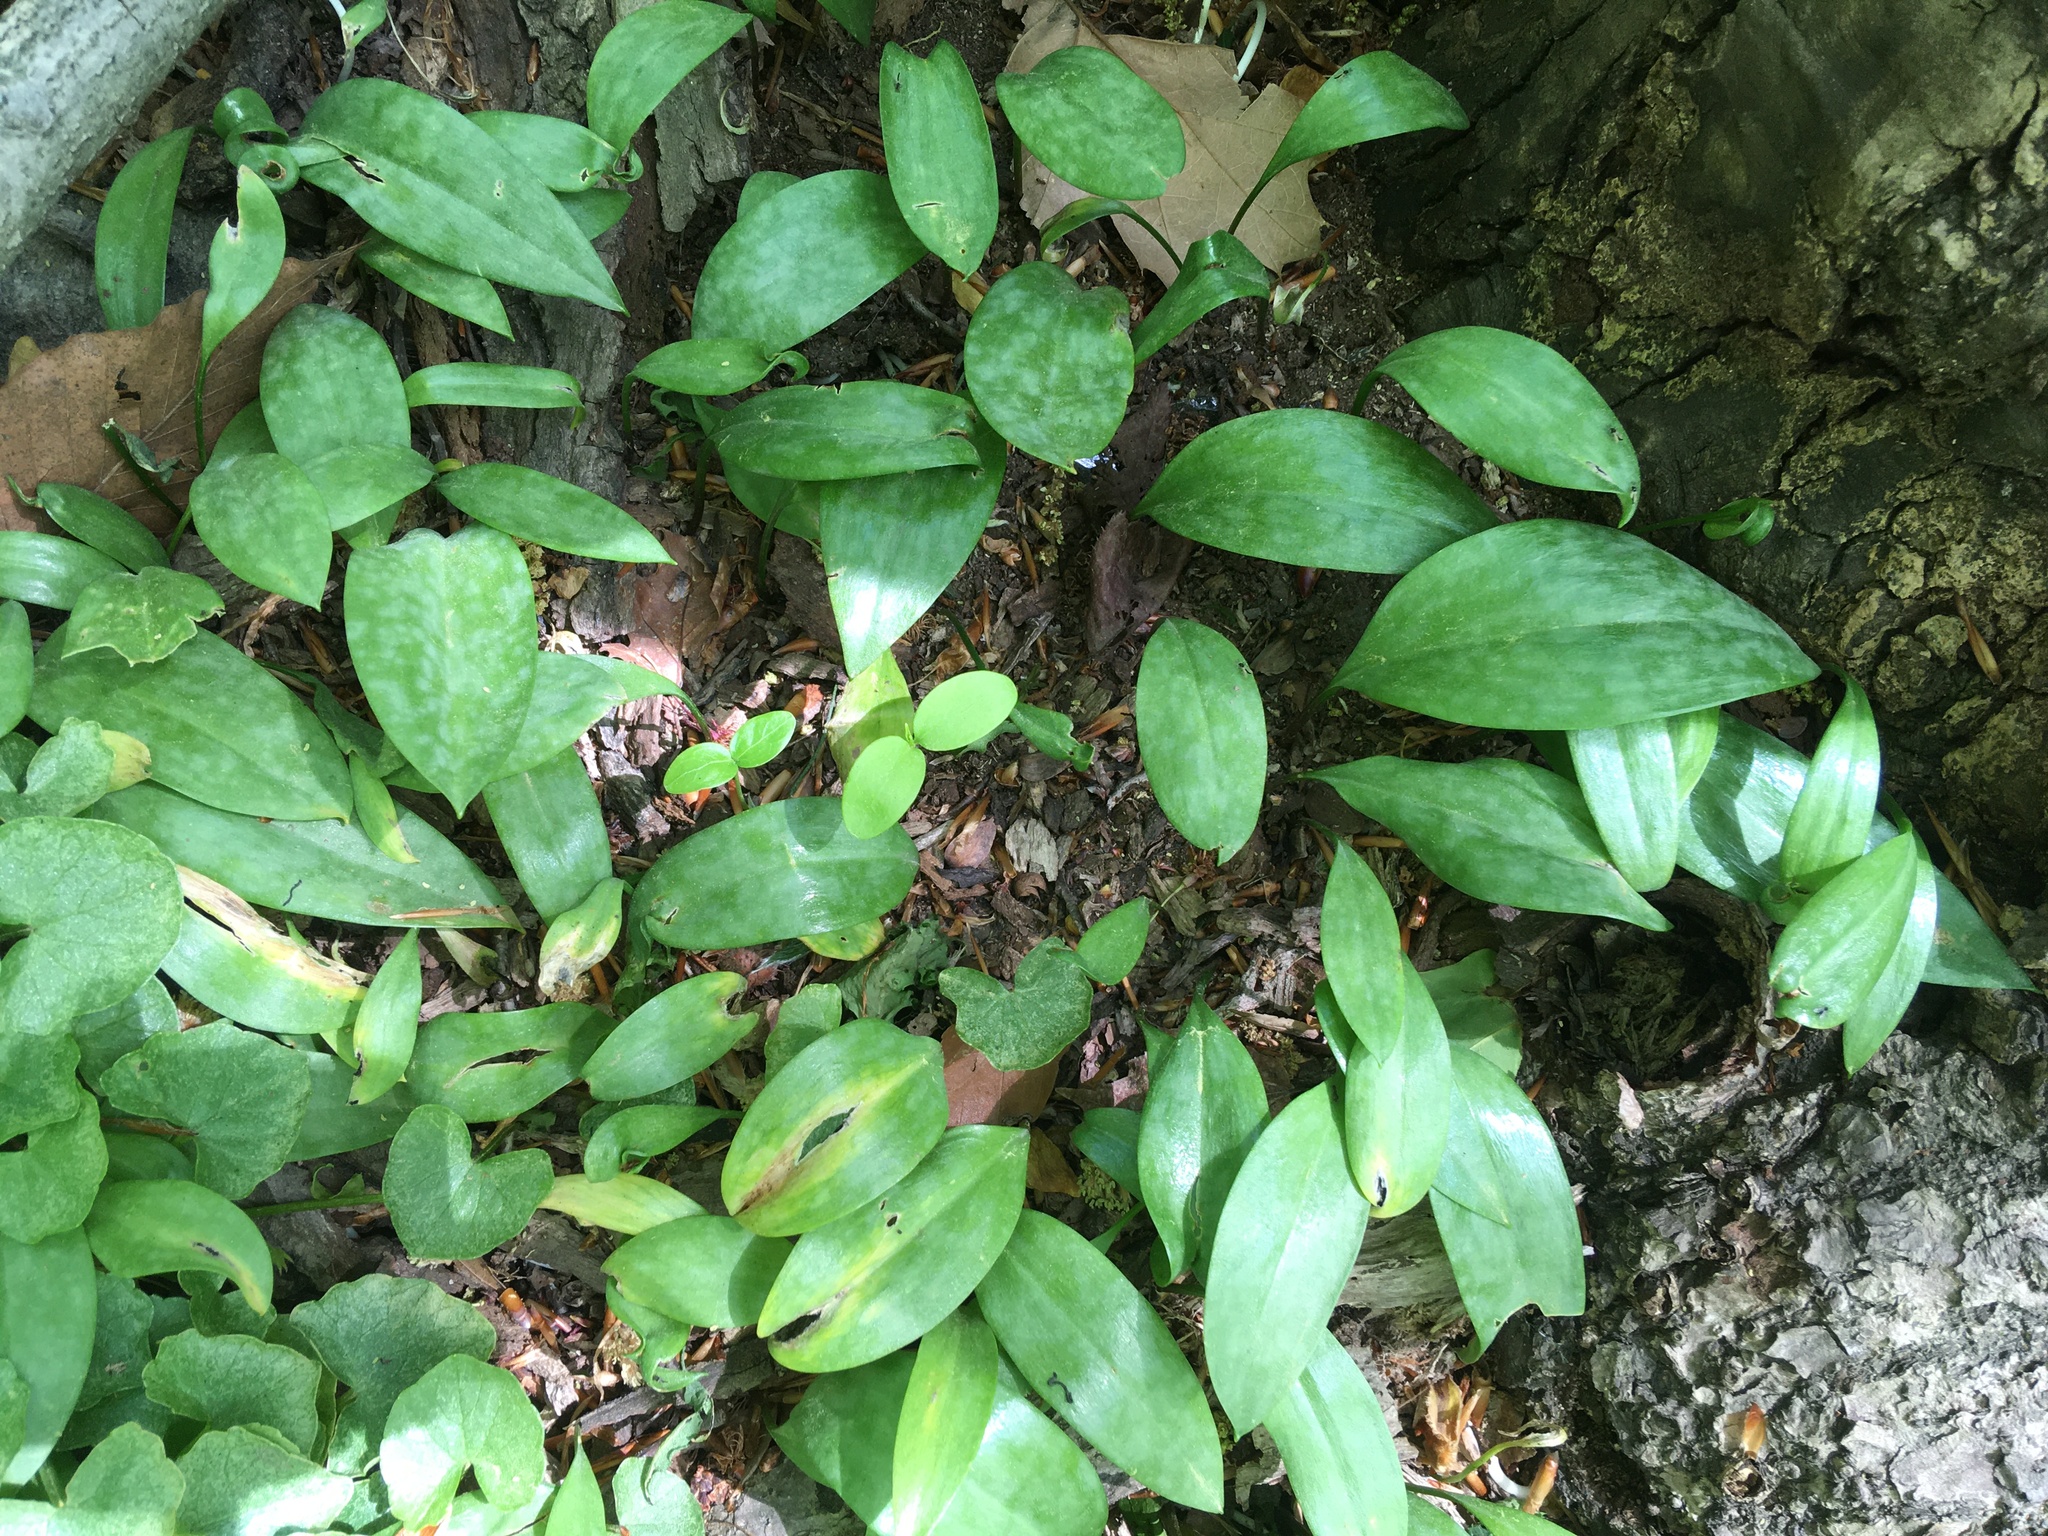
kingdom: Plantae
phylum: Tracheophyta
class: Liliopsida
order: Liliales
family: Liliaceae
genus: Erythronium
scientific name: Erythronium americanum
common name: Yellow adder's-tongue
